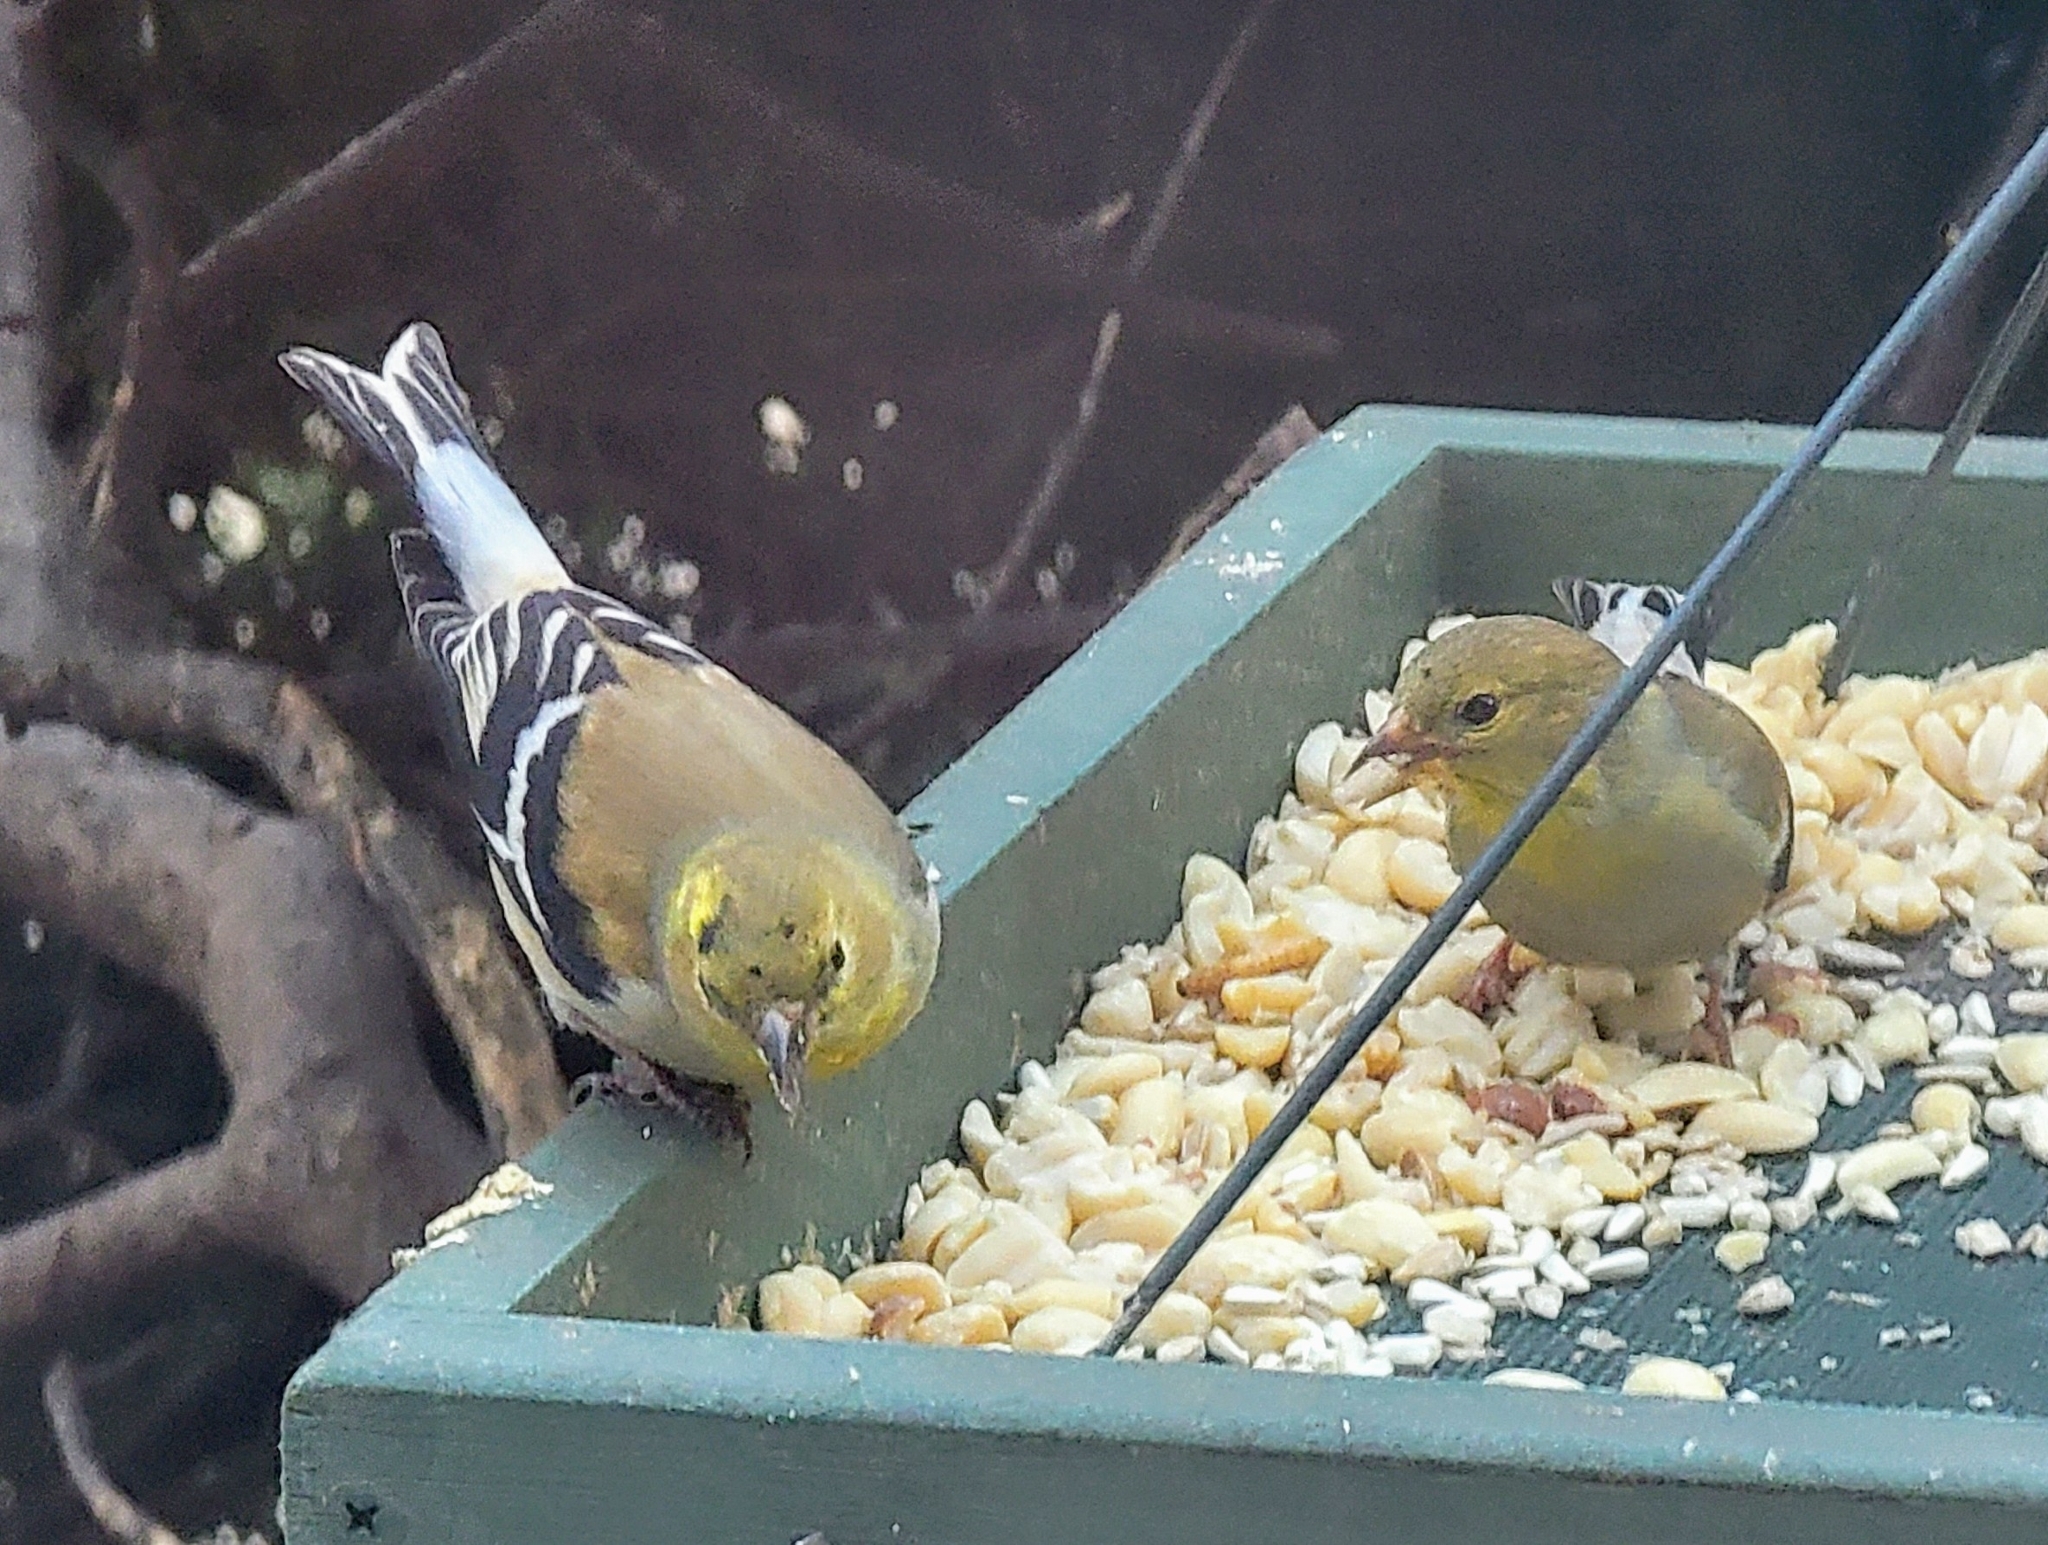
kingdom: Animalia
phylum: Chordata
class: Aves
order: Passeriformes
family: Fringillidae
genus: Spinus
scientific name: Spinus tristis
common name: American goldfinch
